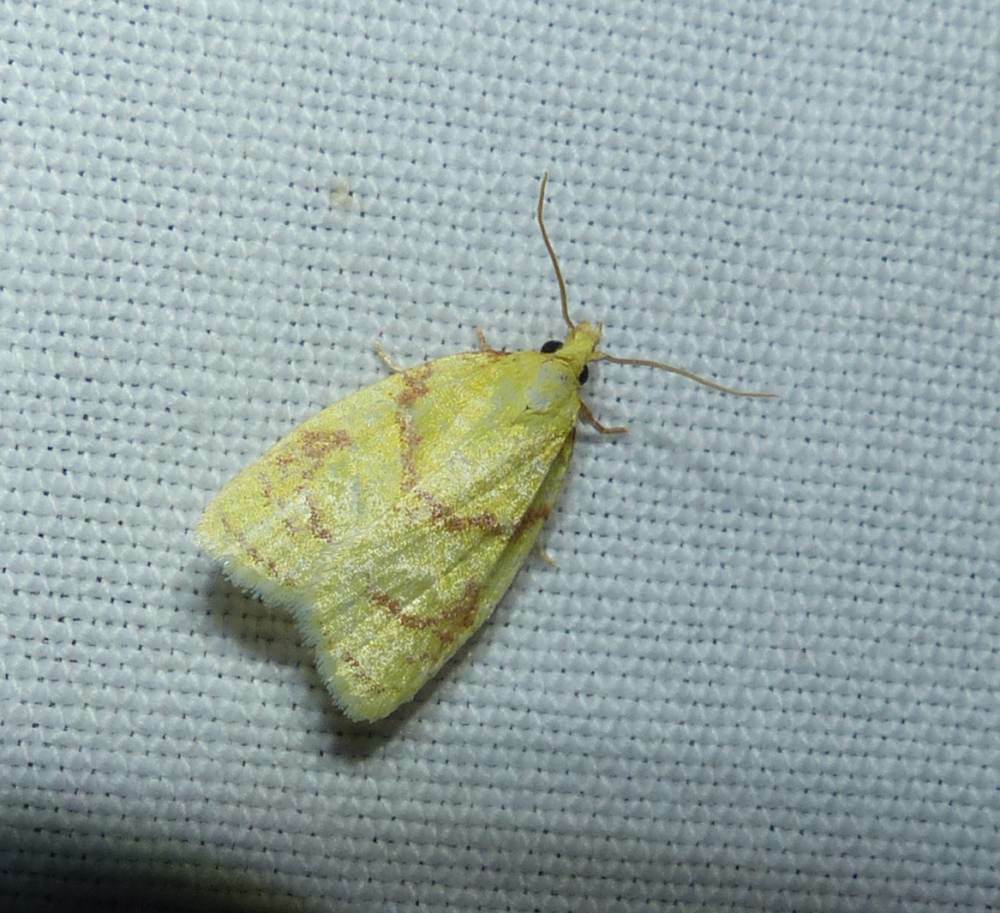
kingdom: Animalia
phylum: Arthropoda
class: Insecta
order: Lepidoptera
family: Tortricidae
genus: Cenopis
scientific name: Cenopis pettitana
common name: Maple-basswood leafroller moth
